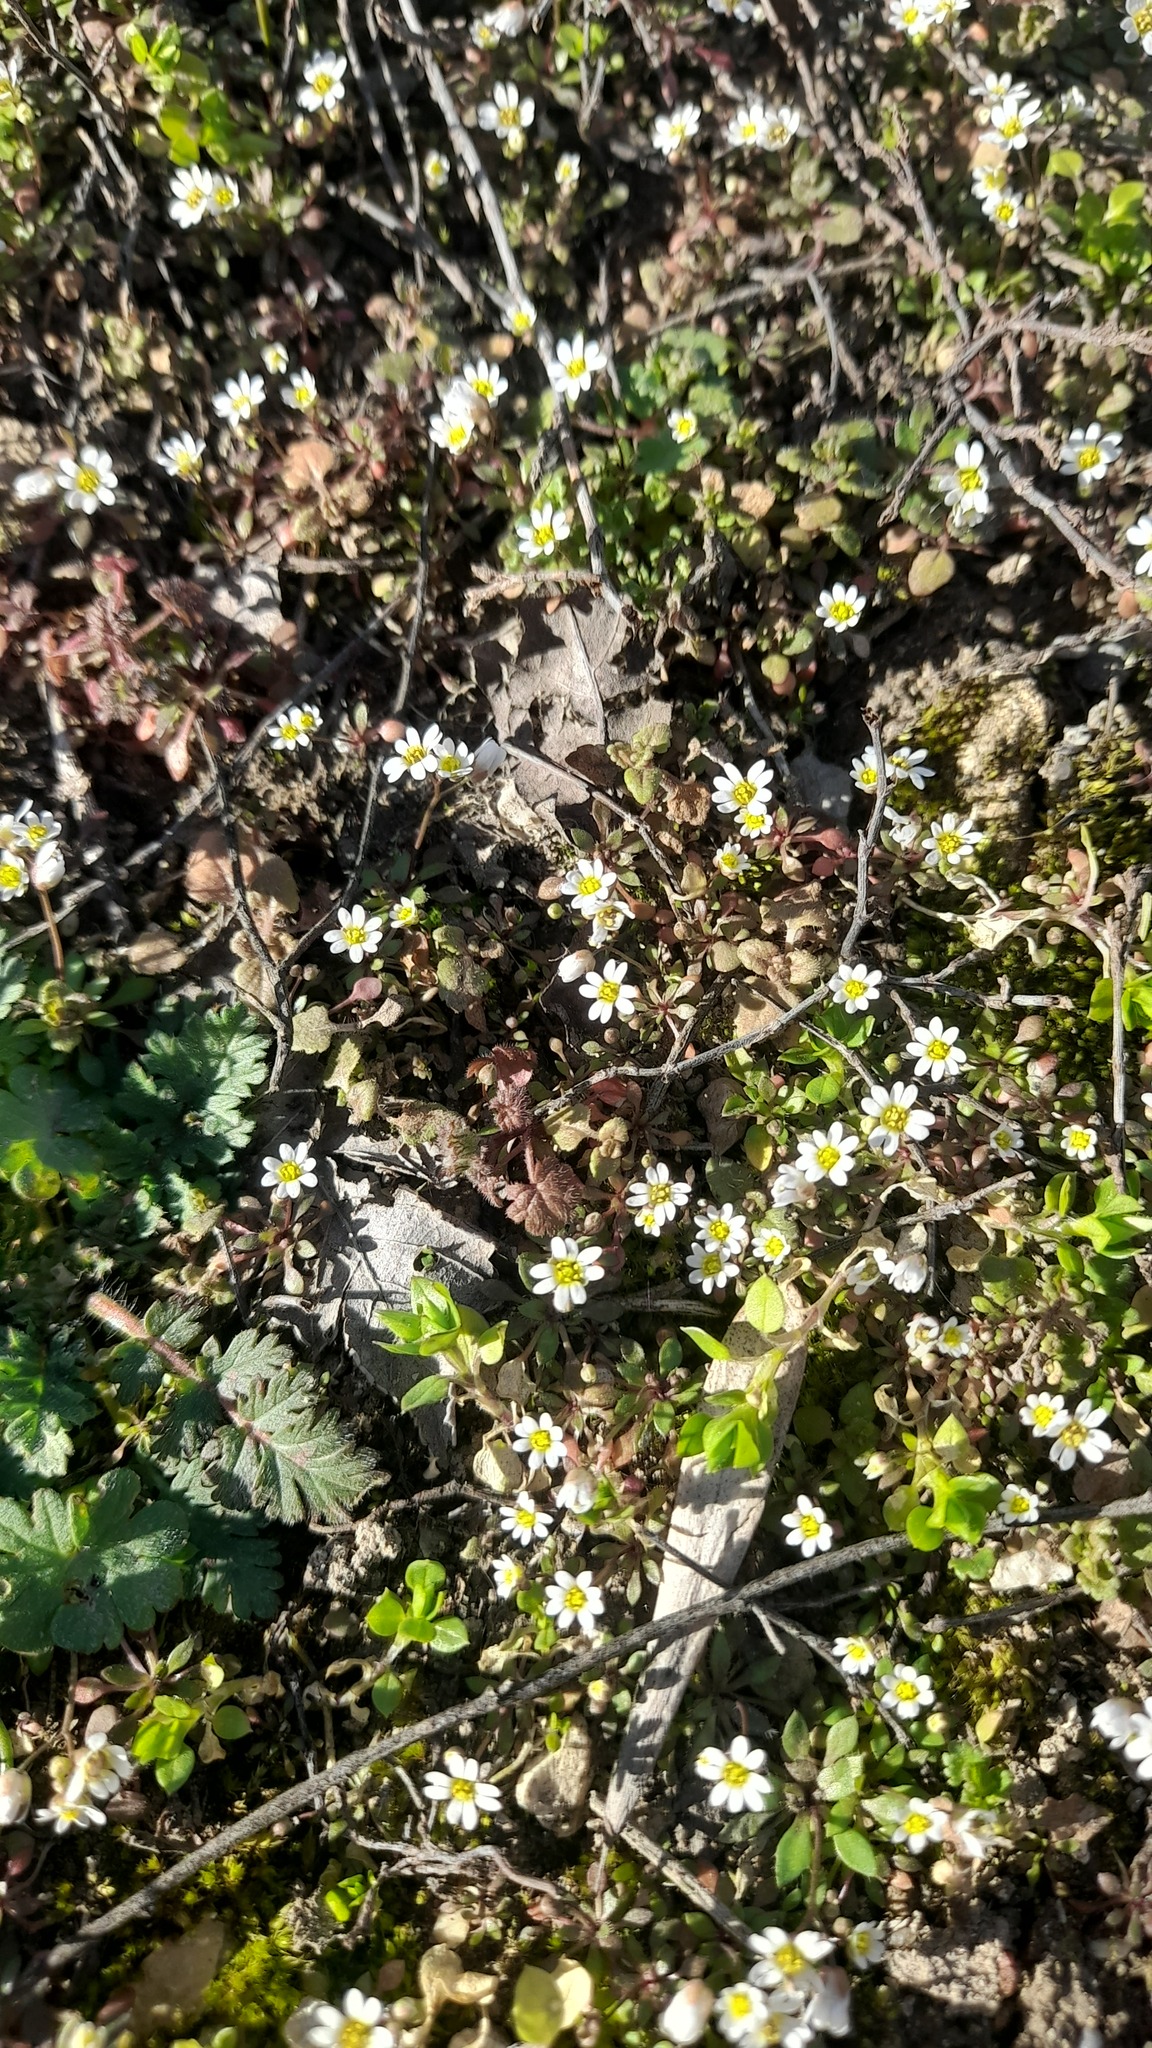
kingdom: Plantae
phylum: Tracheophyta
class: Magnoliopsida
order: Brassicales
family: Brassicaceae
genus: Draba
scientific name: Draba verna
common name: Spring draba
